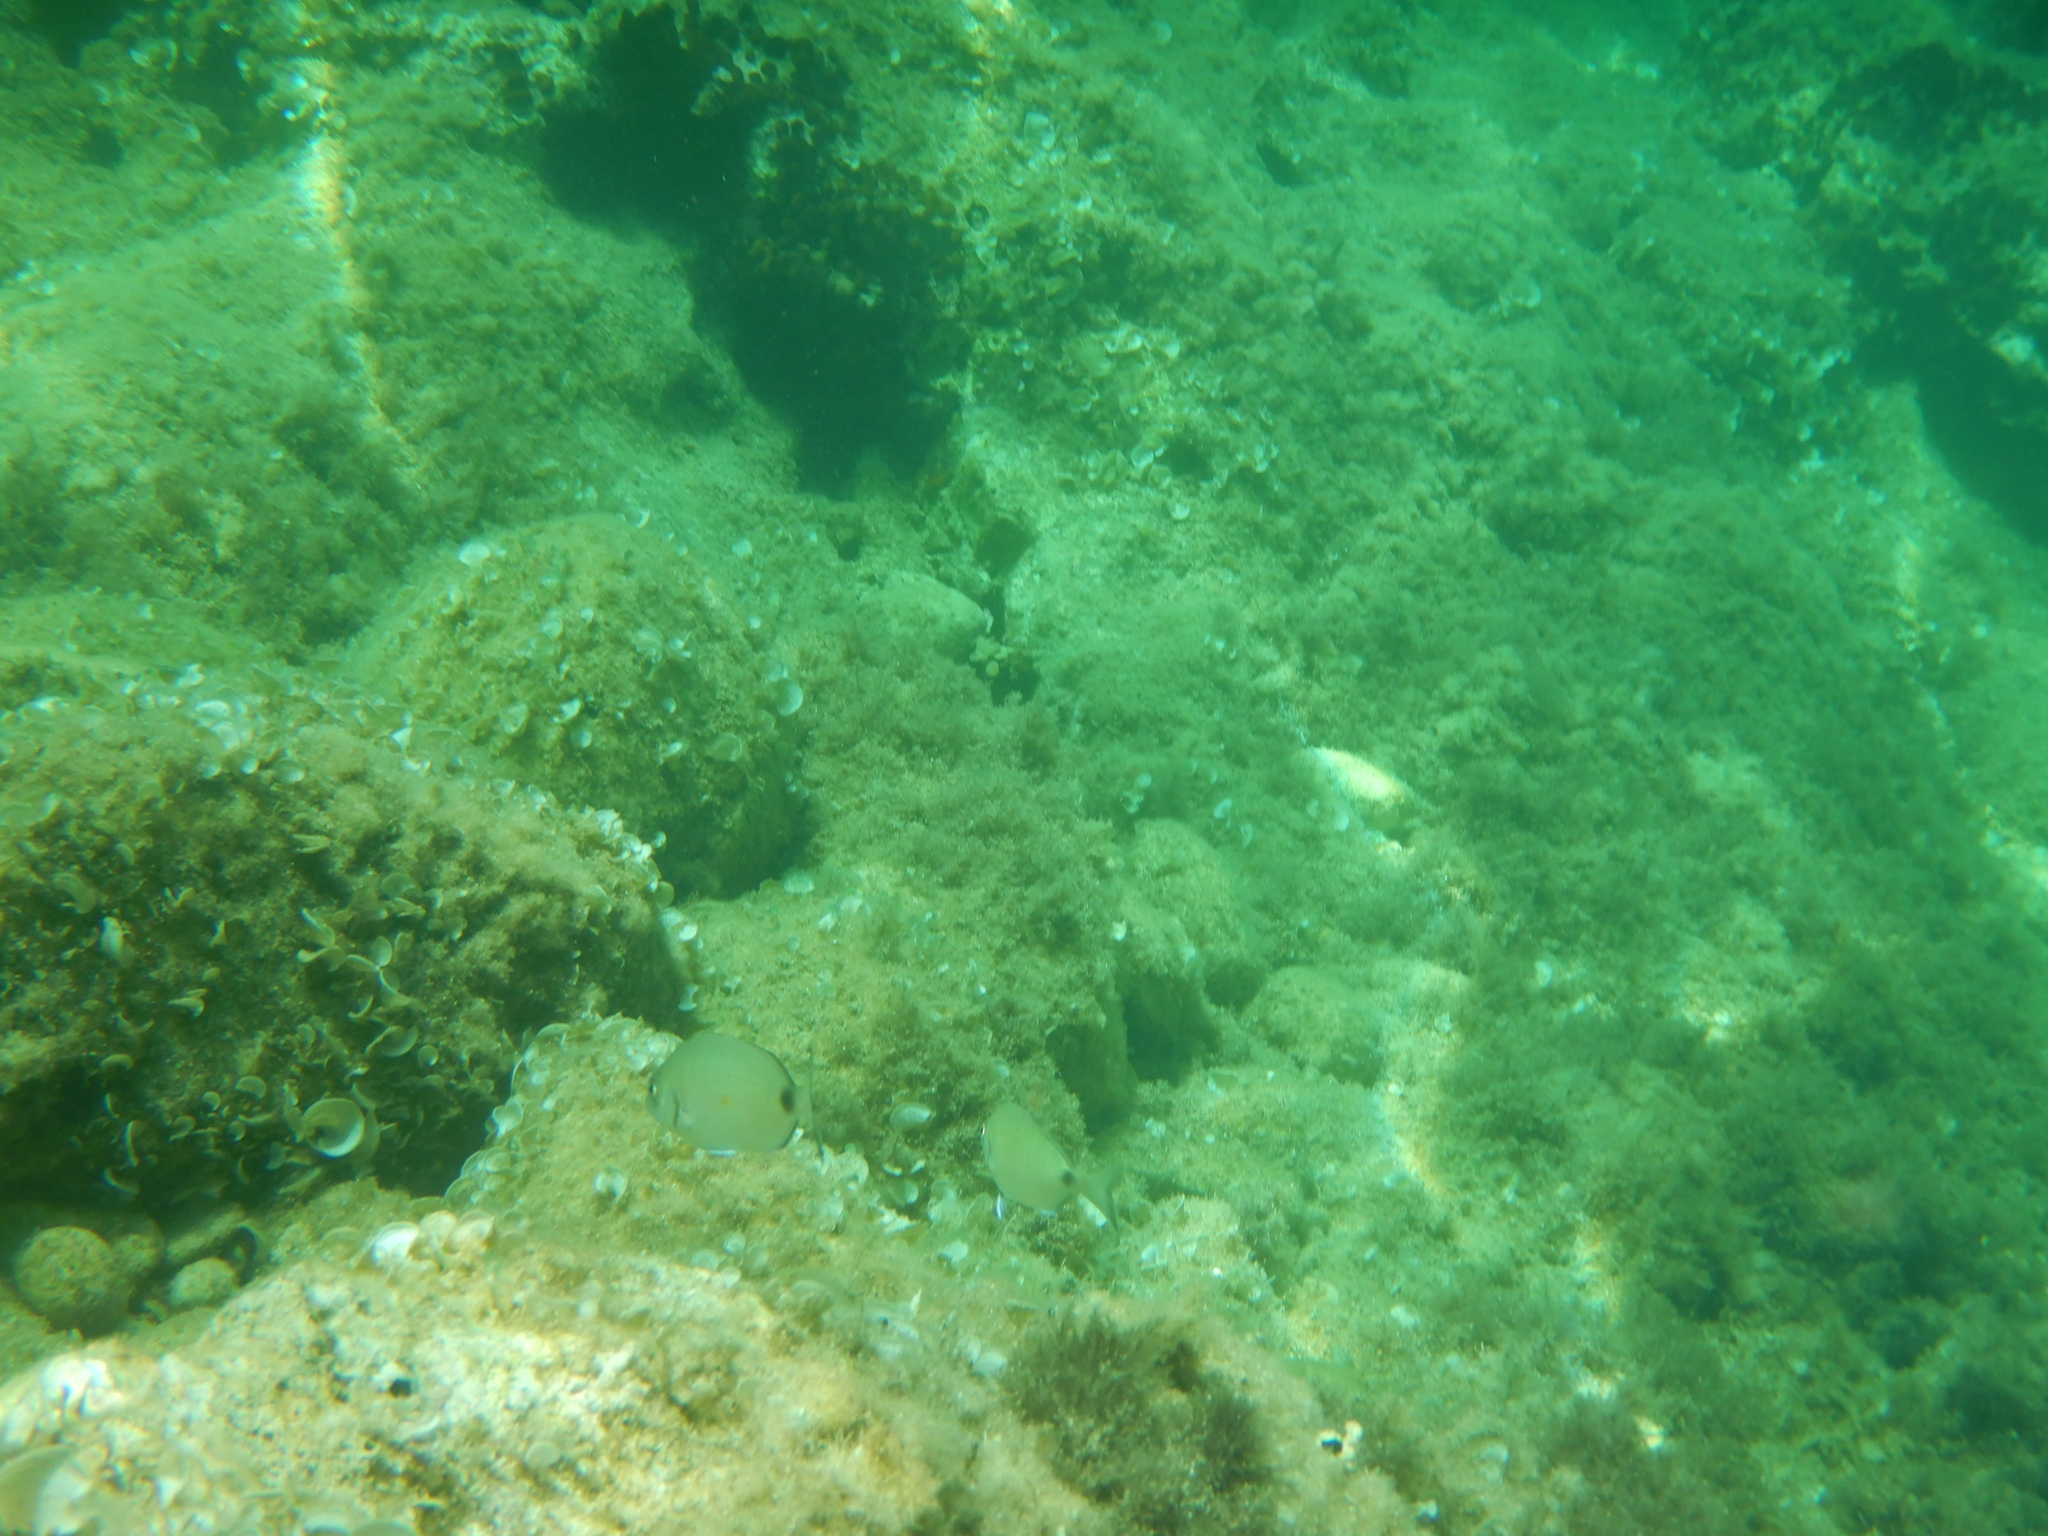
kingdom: Animalia
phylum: Chordata
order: Perciformes
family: Sparidae
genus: Diplodus
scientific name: Diplodus sargus
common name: White seabream
